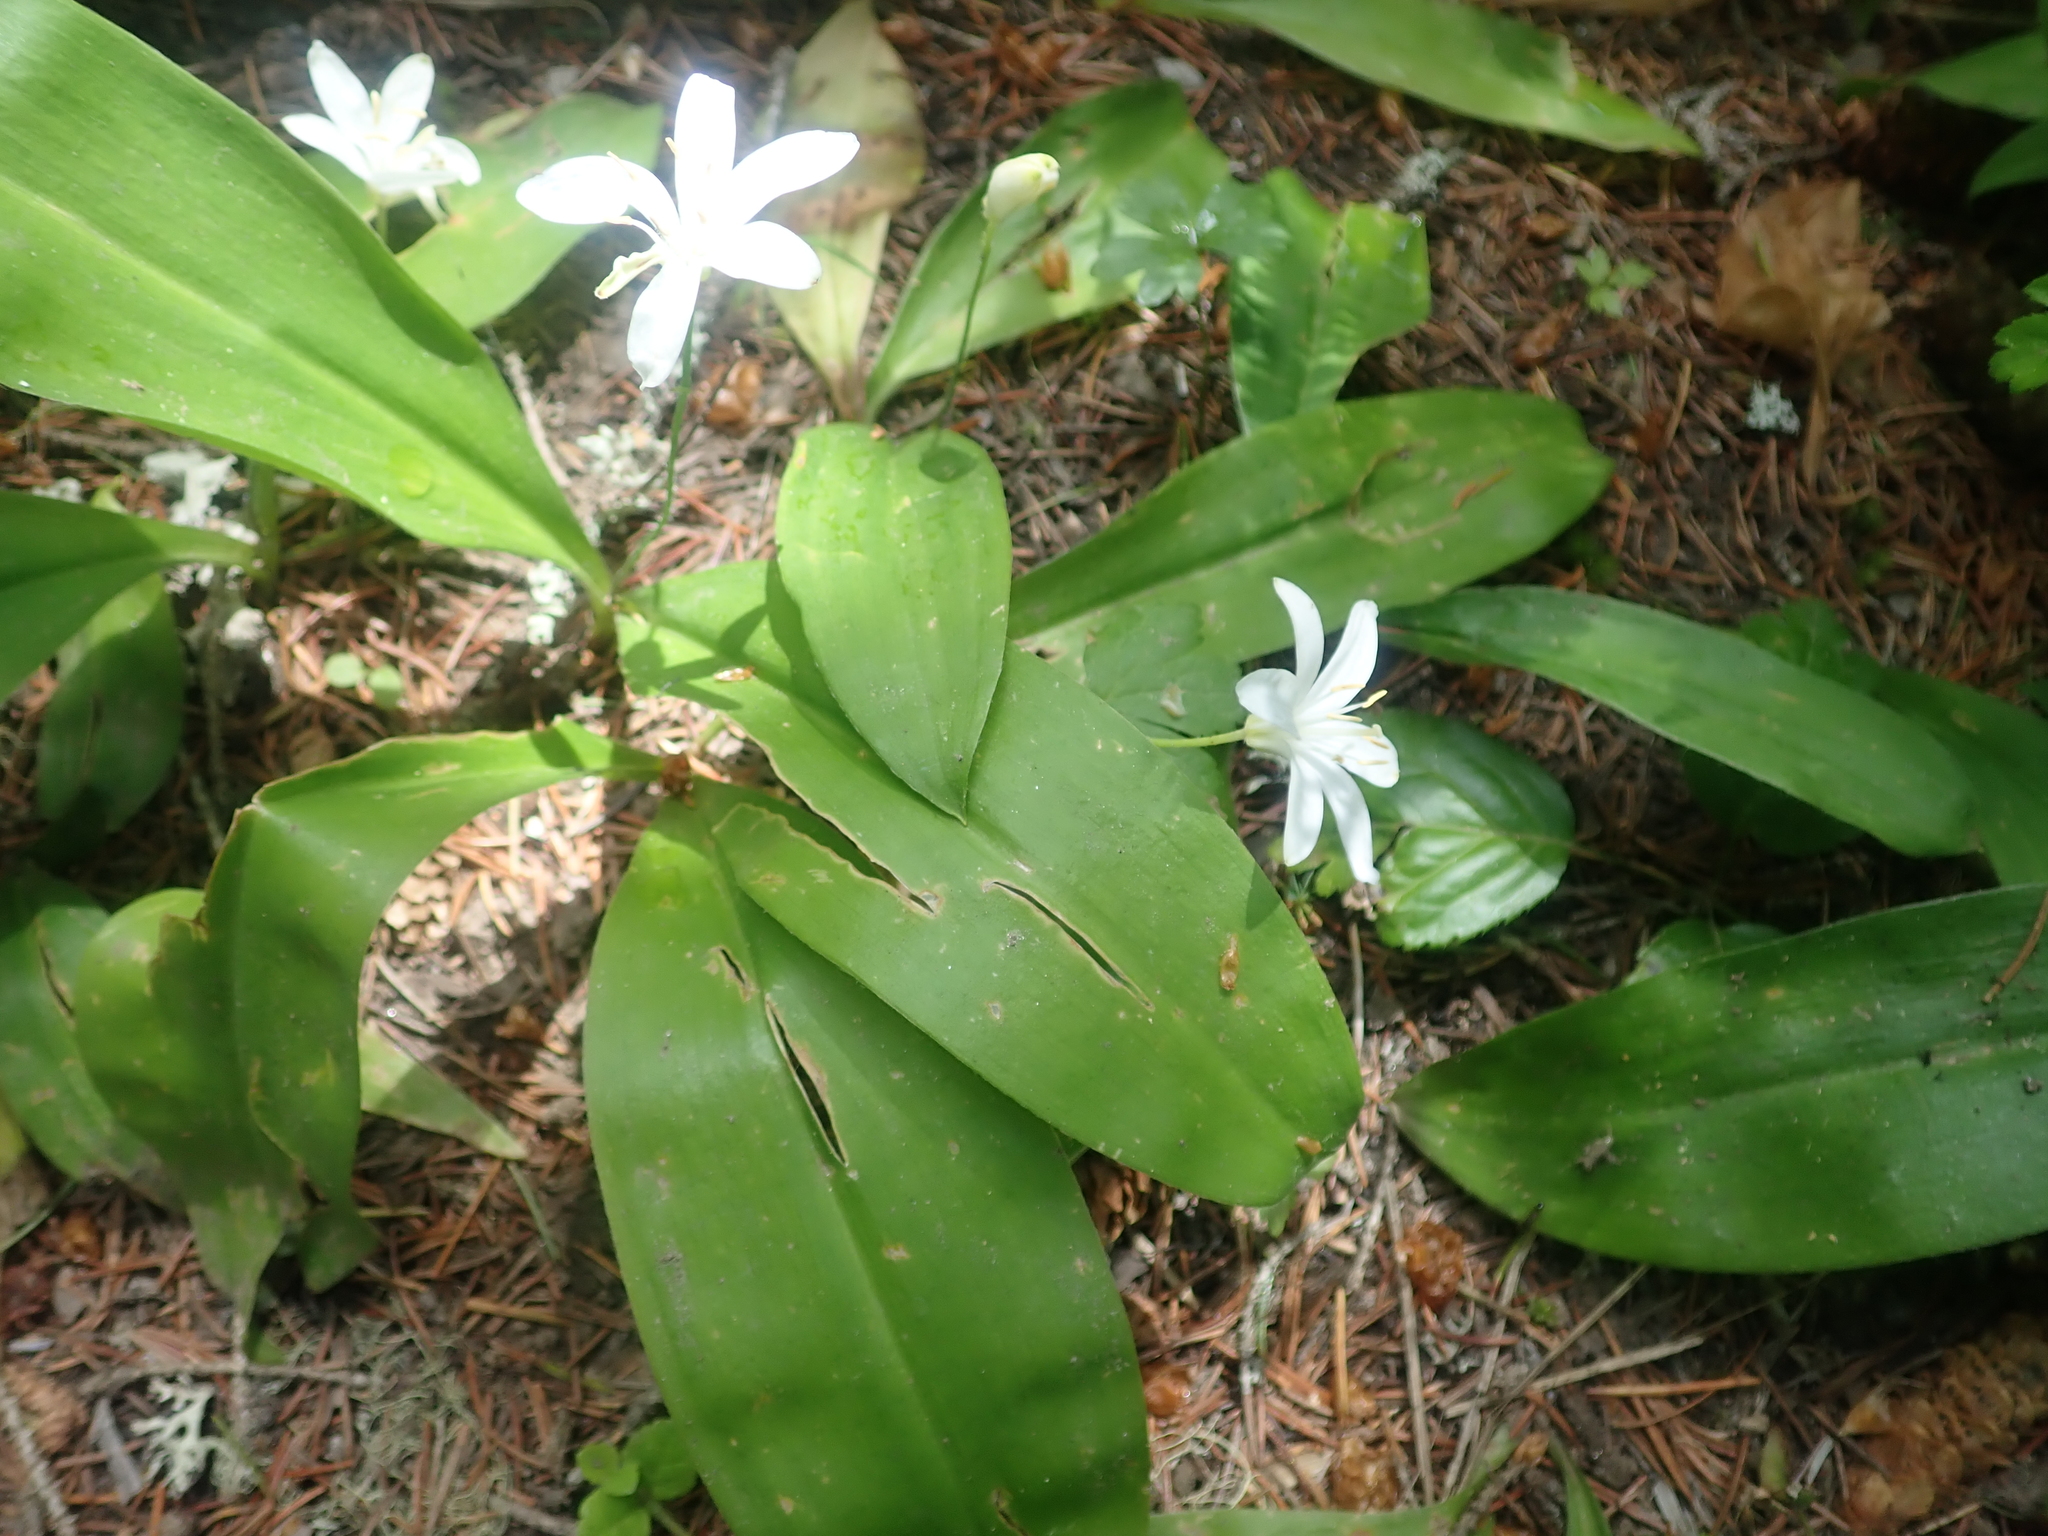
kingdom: Plantae
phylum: Tracheophyta
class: Liliopsida
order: Liliales
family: Liliaceae
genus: Clintonia
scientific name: Clintonia uniflora
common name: Queen's cup
